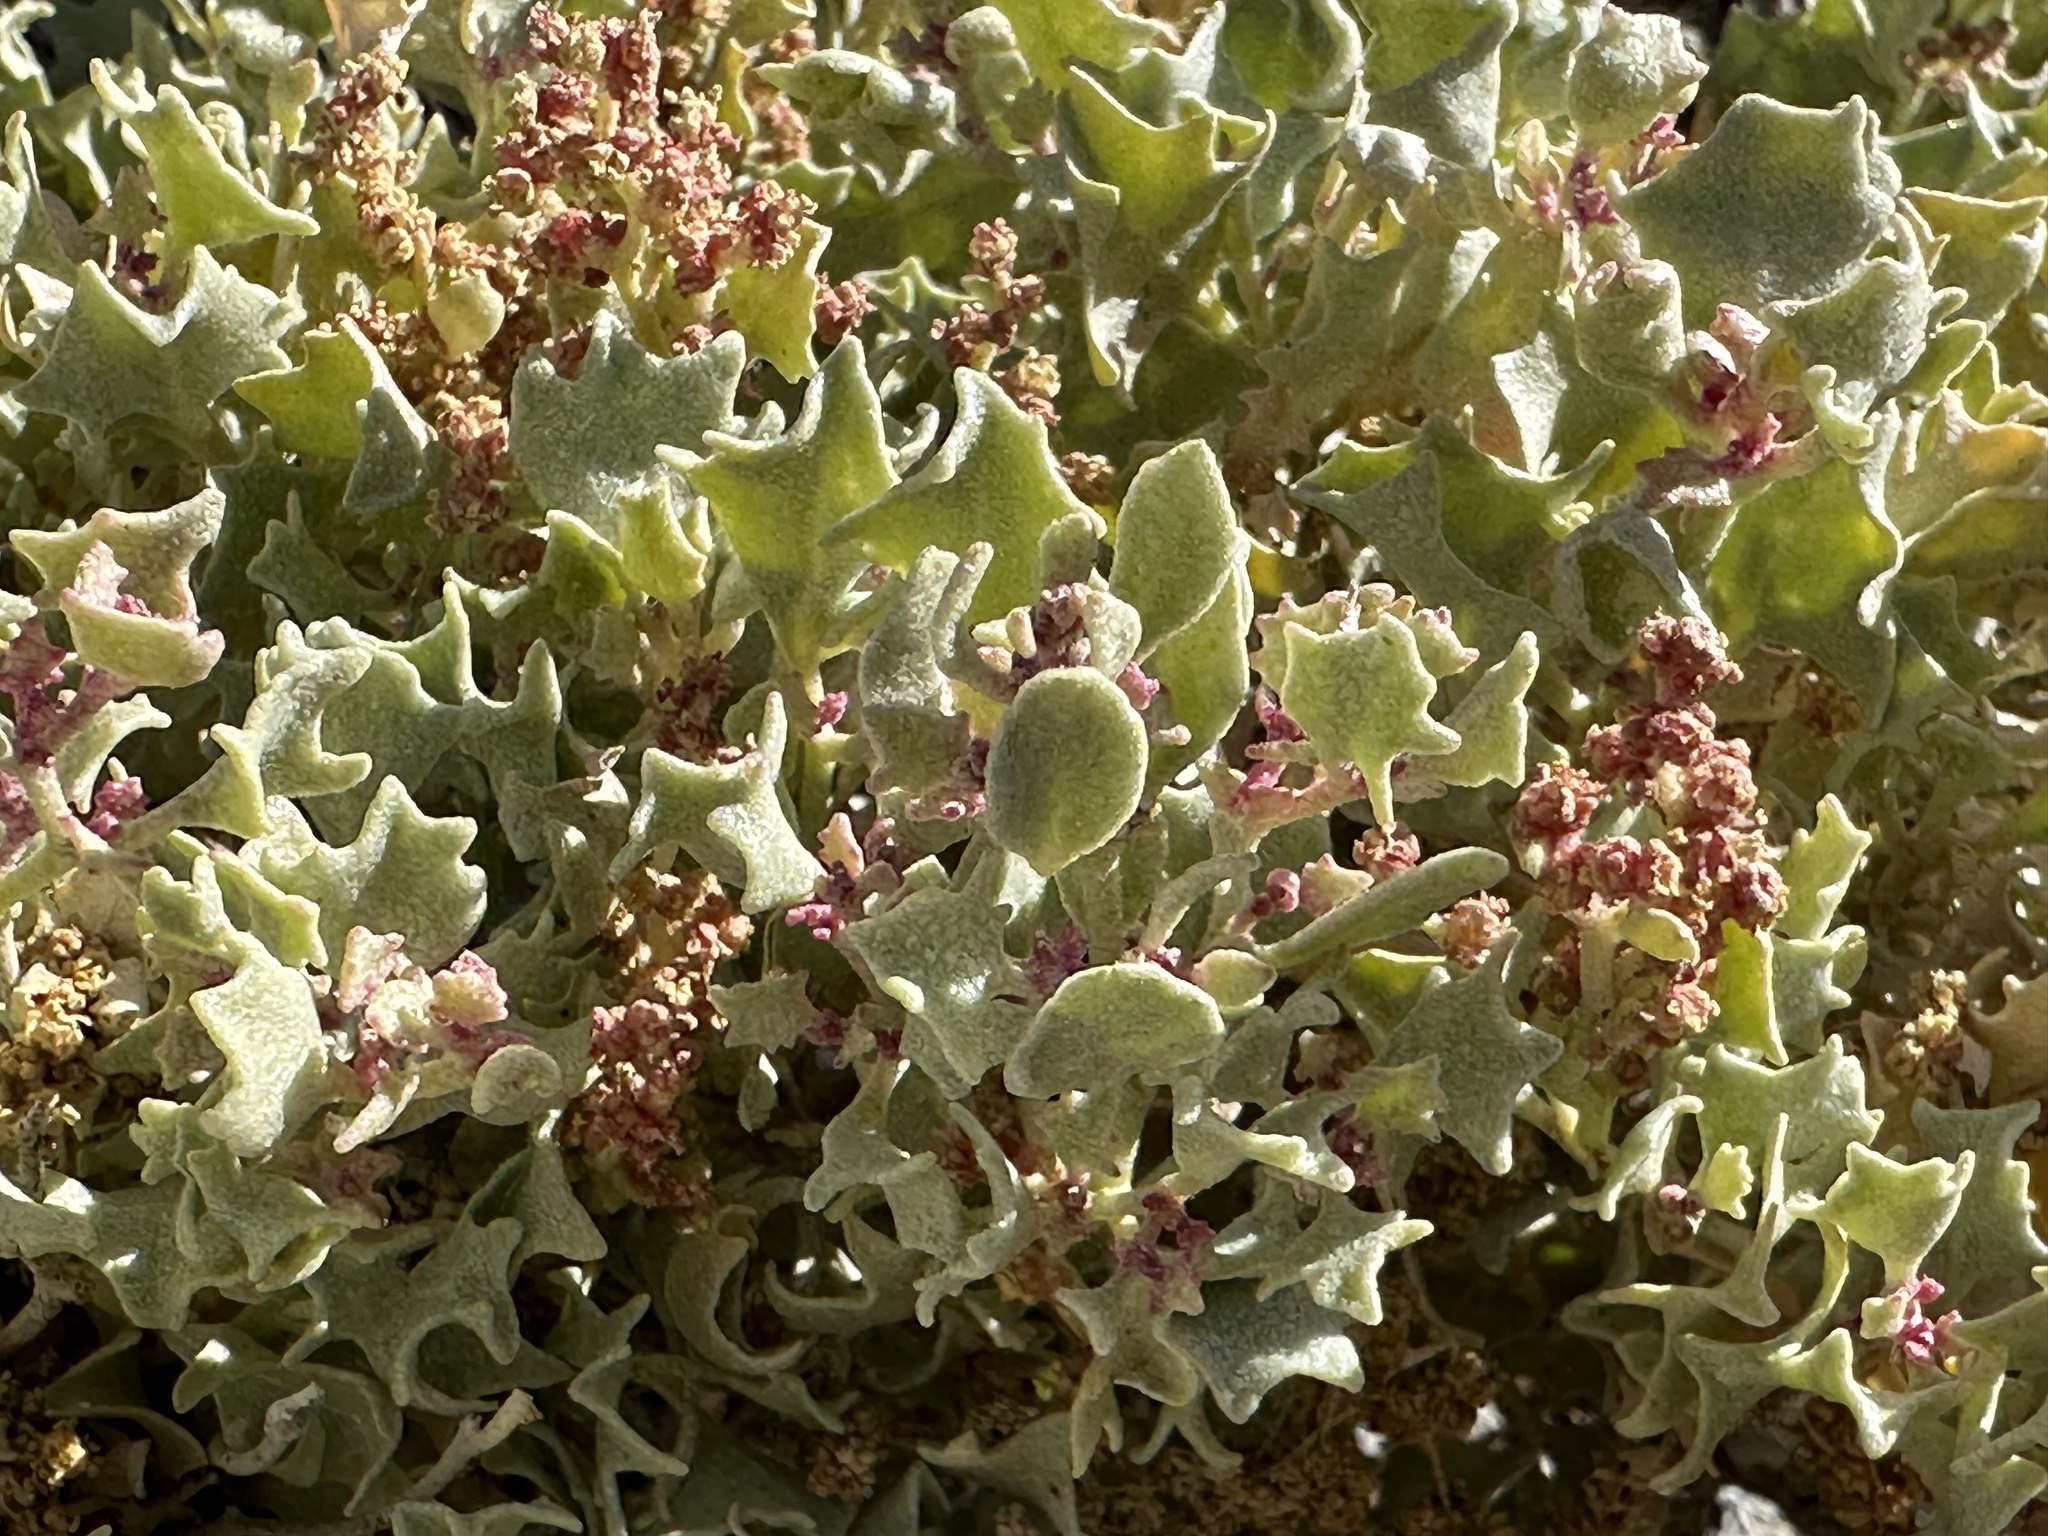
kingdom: Plantae
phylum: Tracheophyta
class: Magnoliopsida
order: Caryophyllales
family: Amaranthaceae
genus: Atriplex
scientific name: Atriplex hymenelytra
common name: Desert-holly
